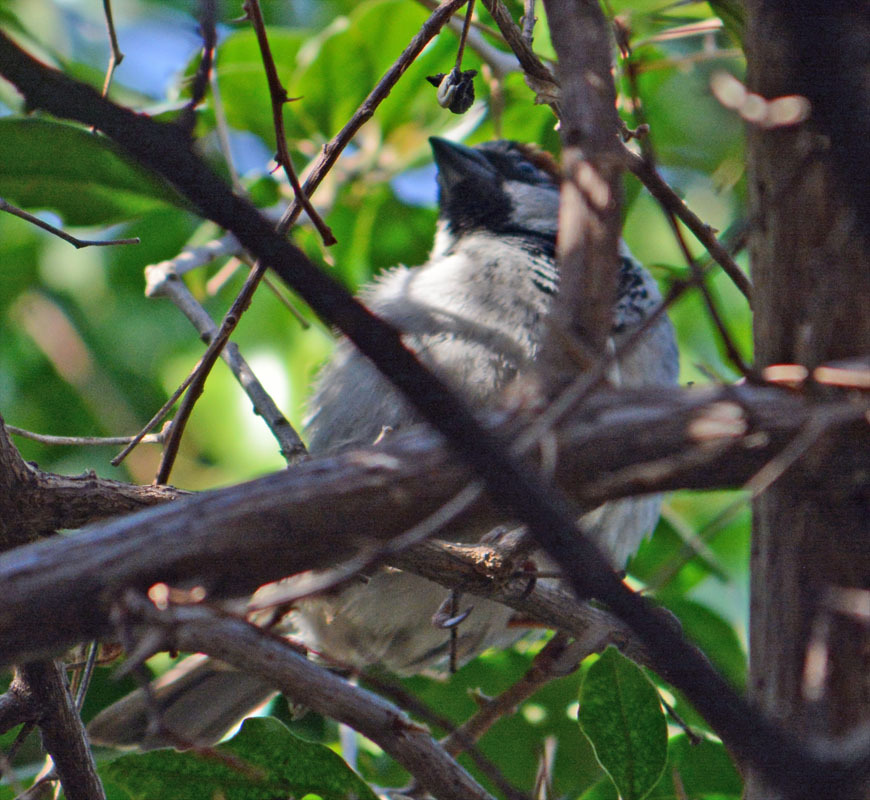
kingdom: Animalia
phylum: Chordata
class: Aves
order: Passeriformes
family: Passeridae
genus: Passer
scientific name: Passer domesticus
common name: House sparrow
